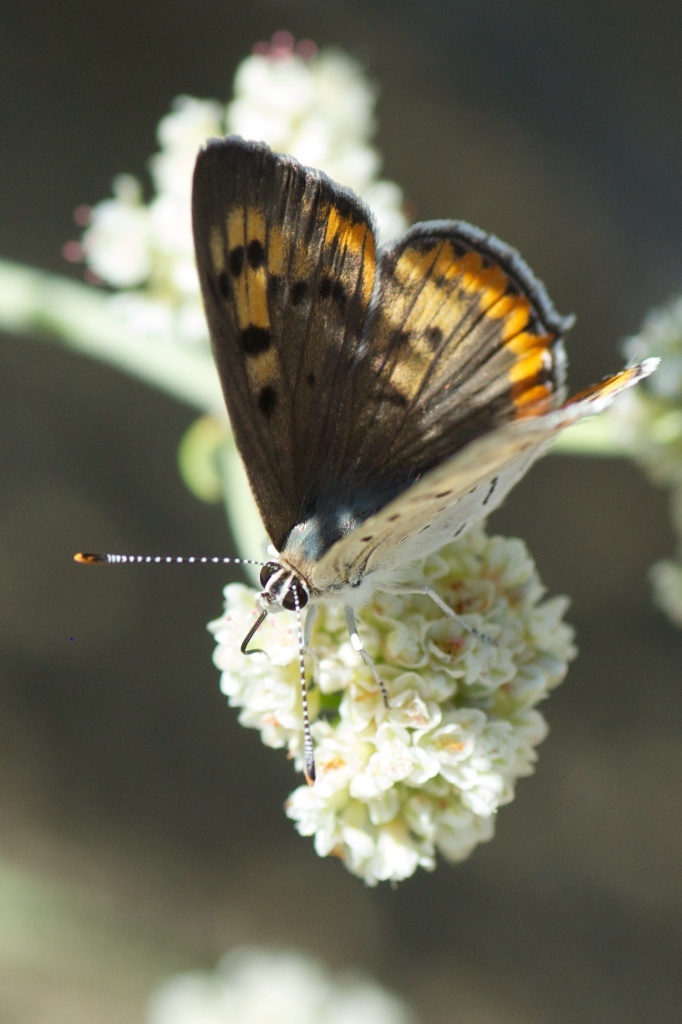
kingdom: Animalia
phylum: Arthropoda
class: Insecta
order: Lepidoptera
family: Lycaenidae
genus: Tharsalea
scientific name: Tharsalea xanthoides
